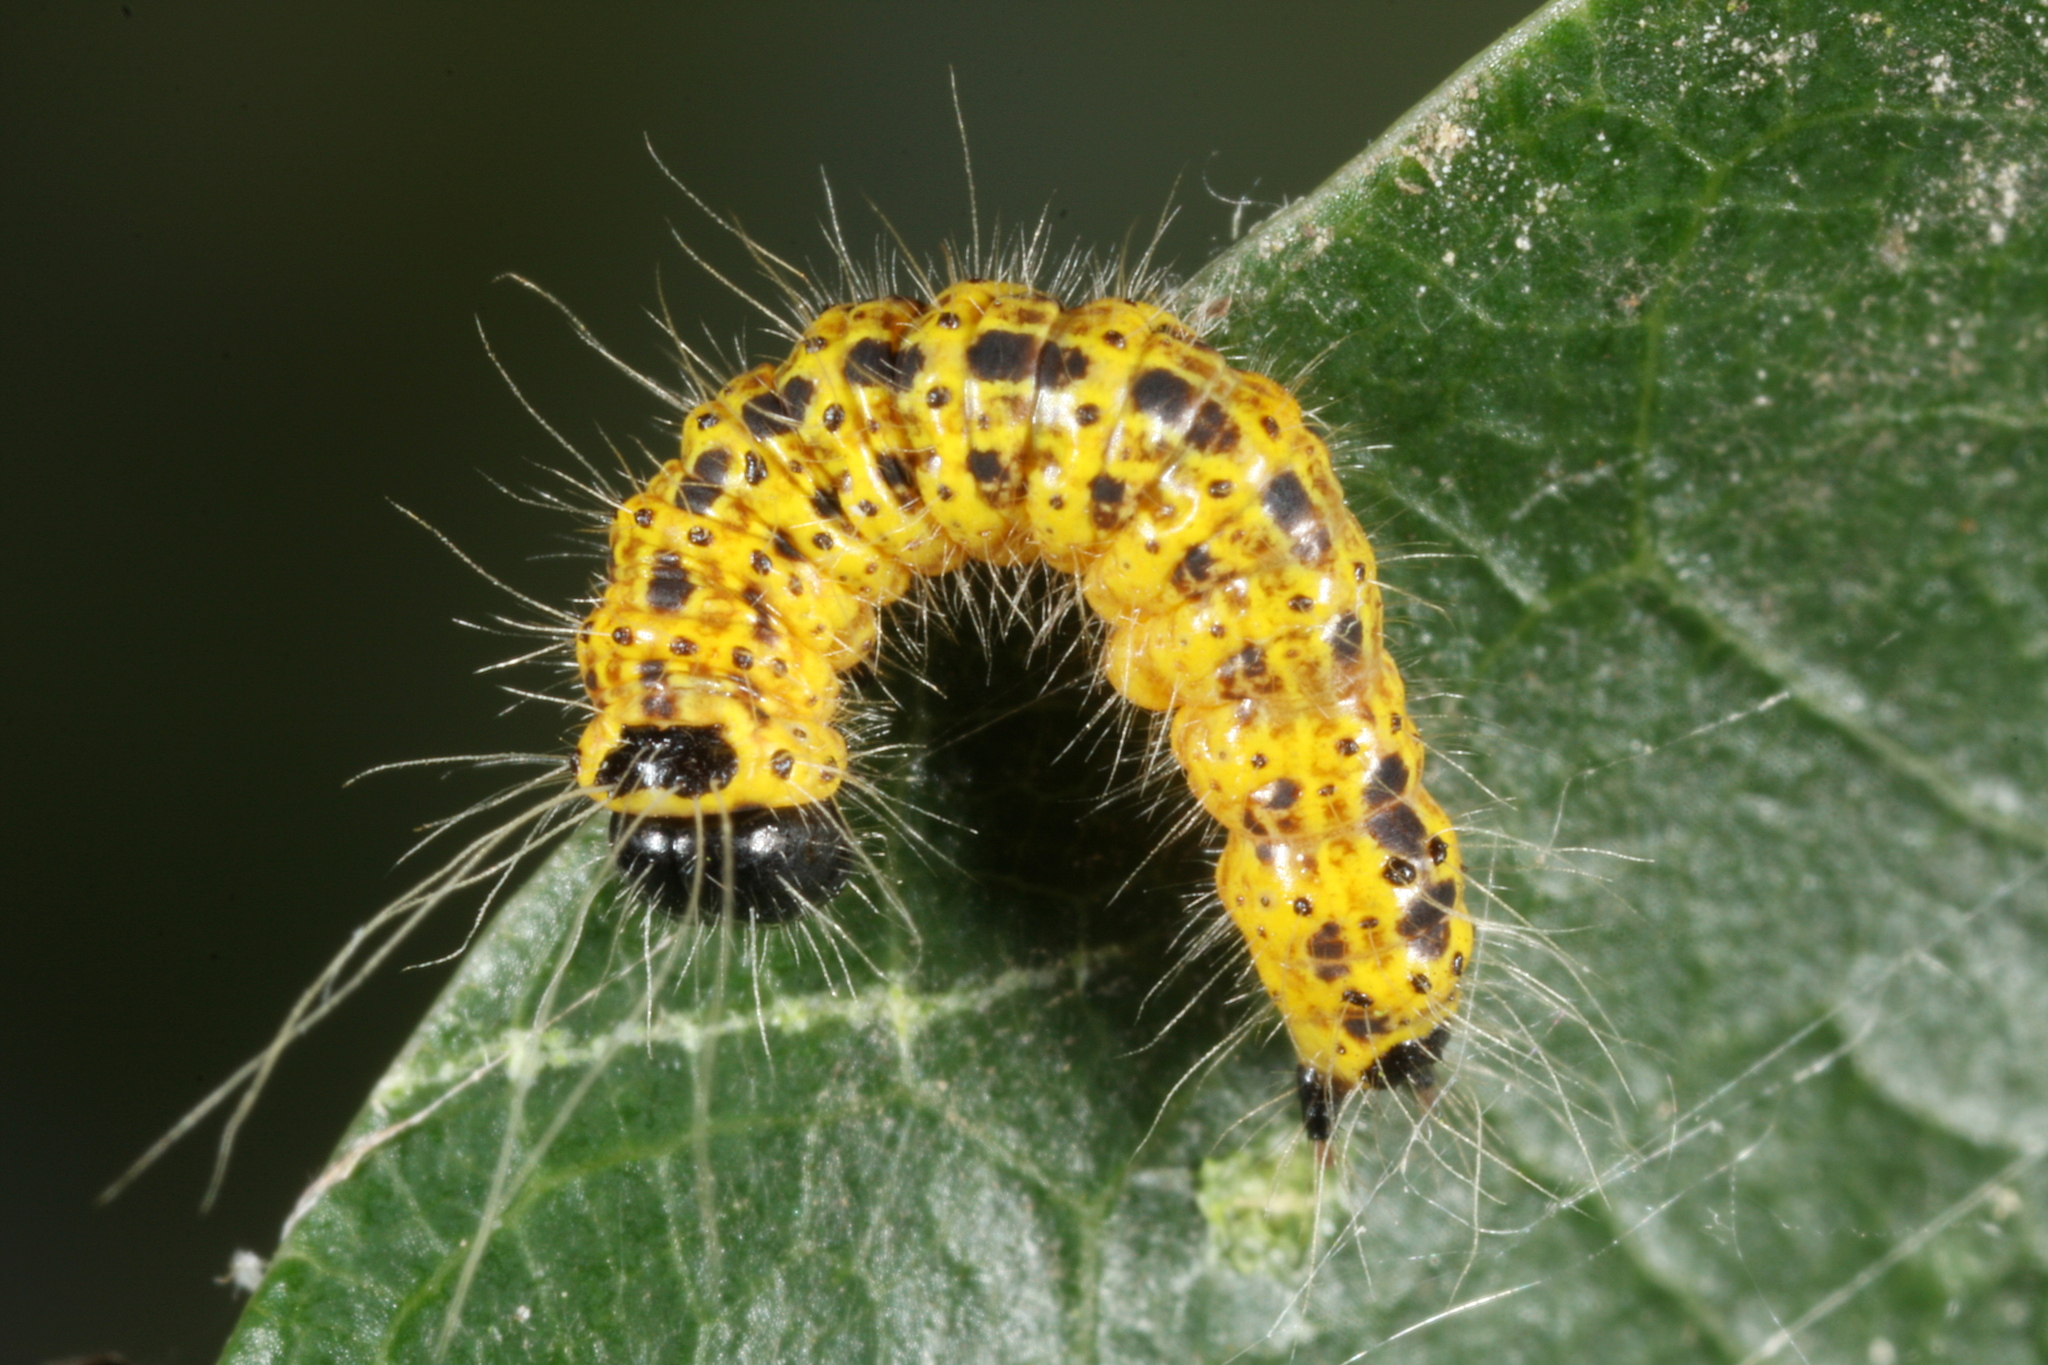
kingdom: Animalia
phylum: Arthropoda
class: Insecta
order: Lepidoptera
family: Notodontidae
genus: Phalera
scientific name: Phalera bucephala
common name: Buff-tip
